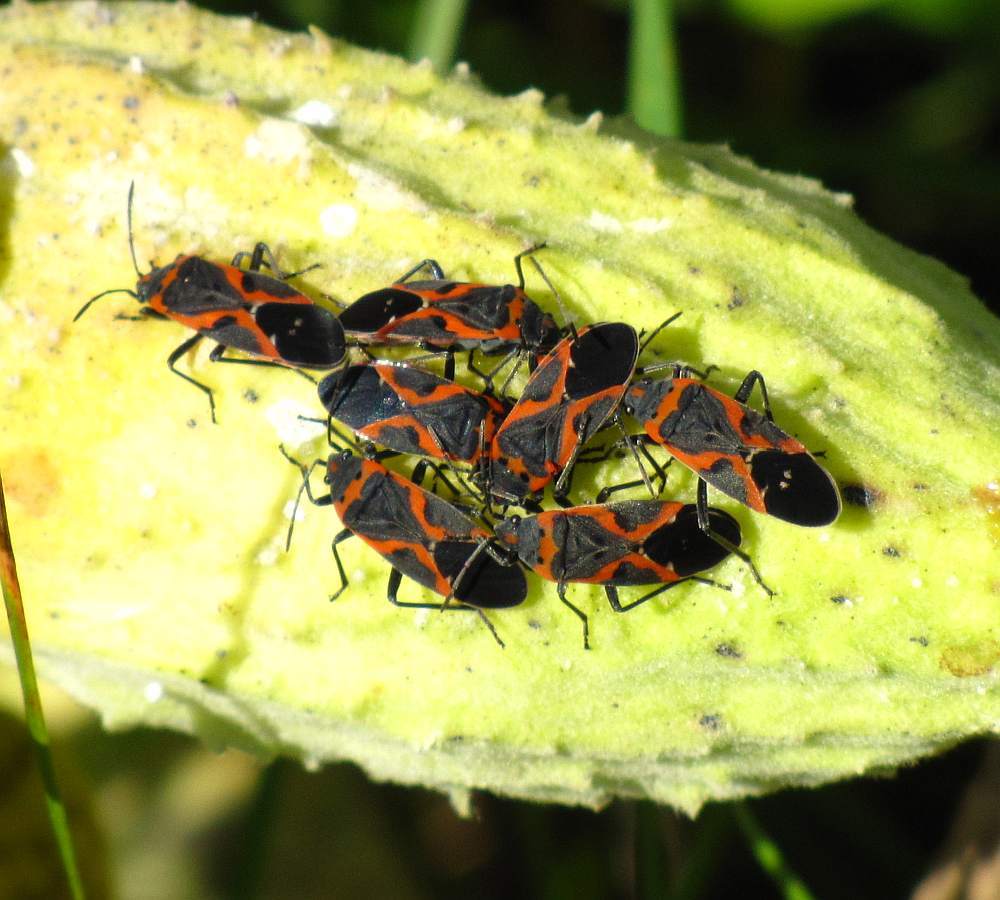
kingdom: Animalia
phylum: Arthropoda
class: Insecta
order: Hemiptera
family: Lygaeidae
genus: Lygaeus
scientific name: Lygaeus kalmii
